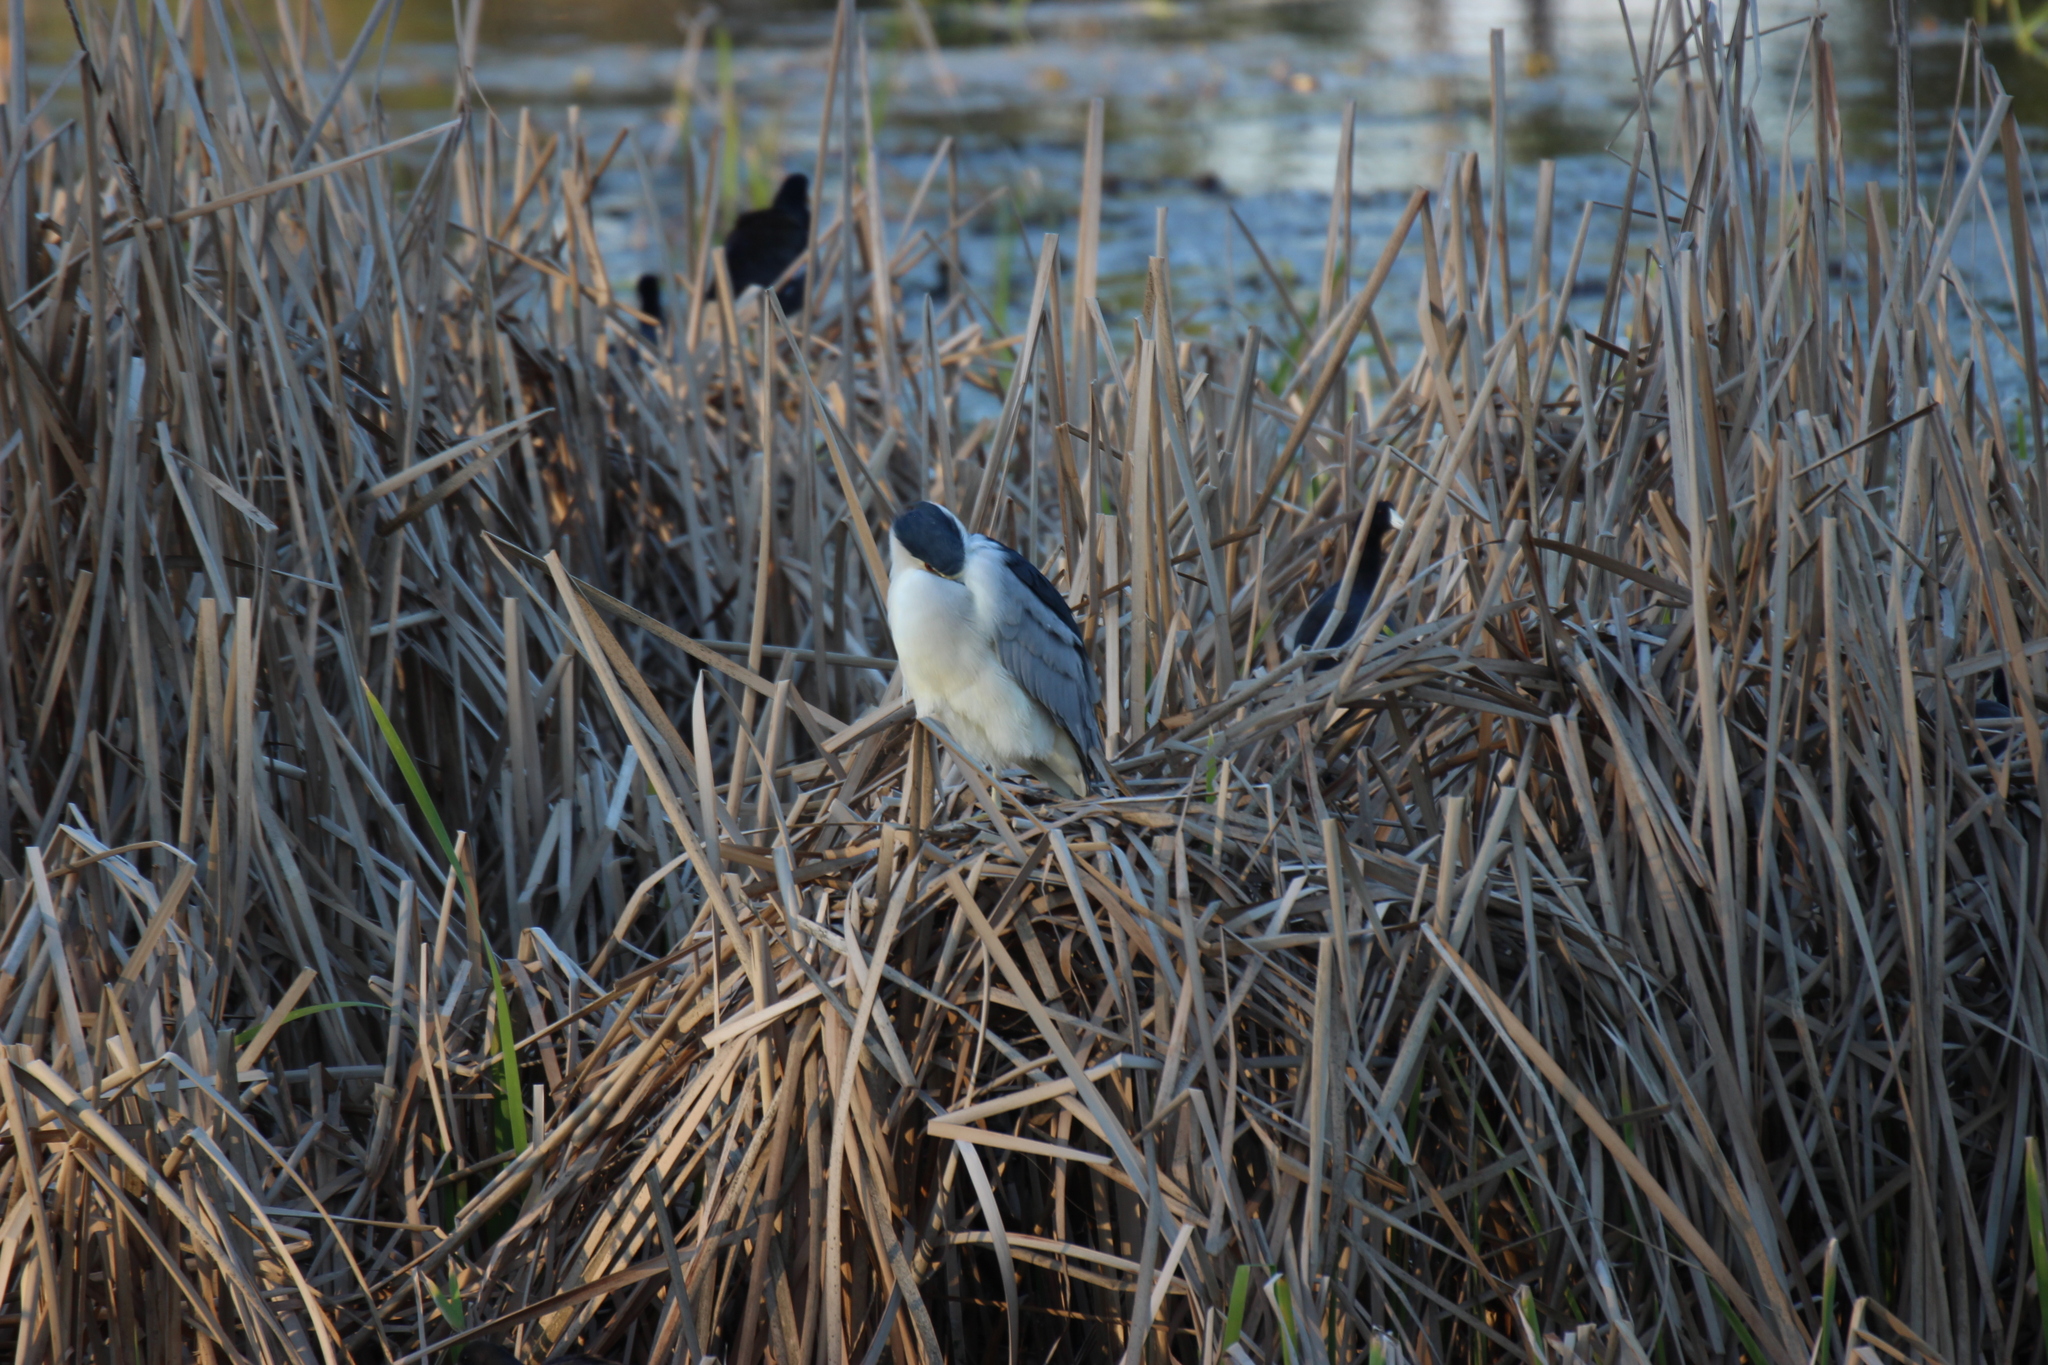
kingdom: Animalia
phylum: Chordata
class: Aves
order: Pelecaniformes
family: Ardeidae
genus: Nycticorax
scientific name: Nycticorax nycticorax
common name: Black-crowned night heron
